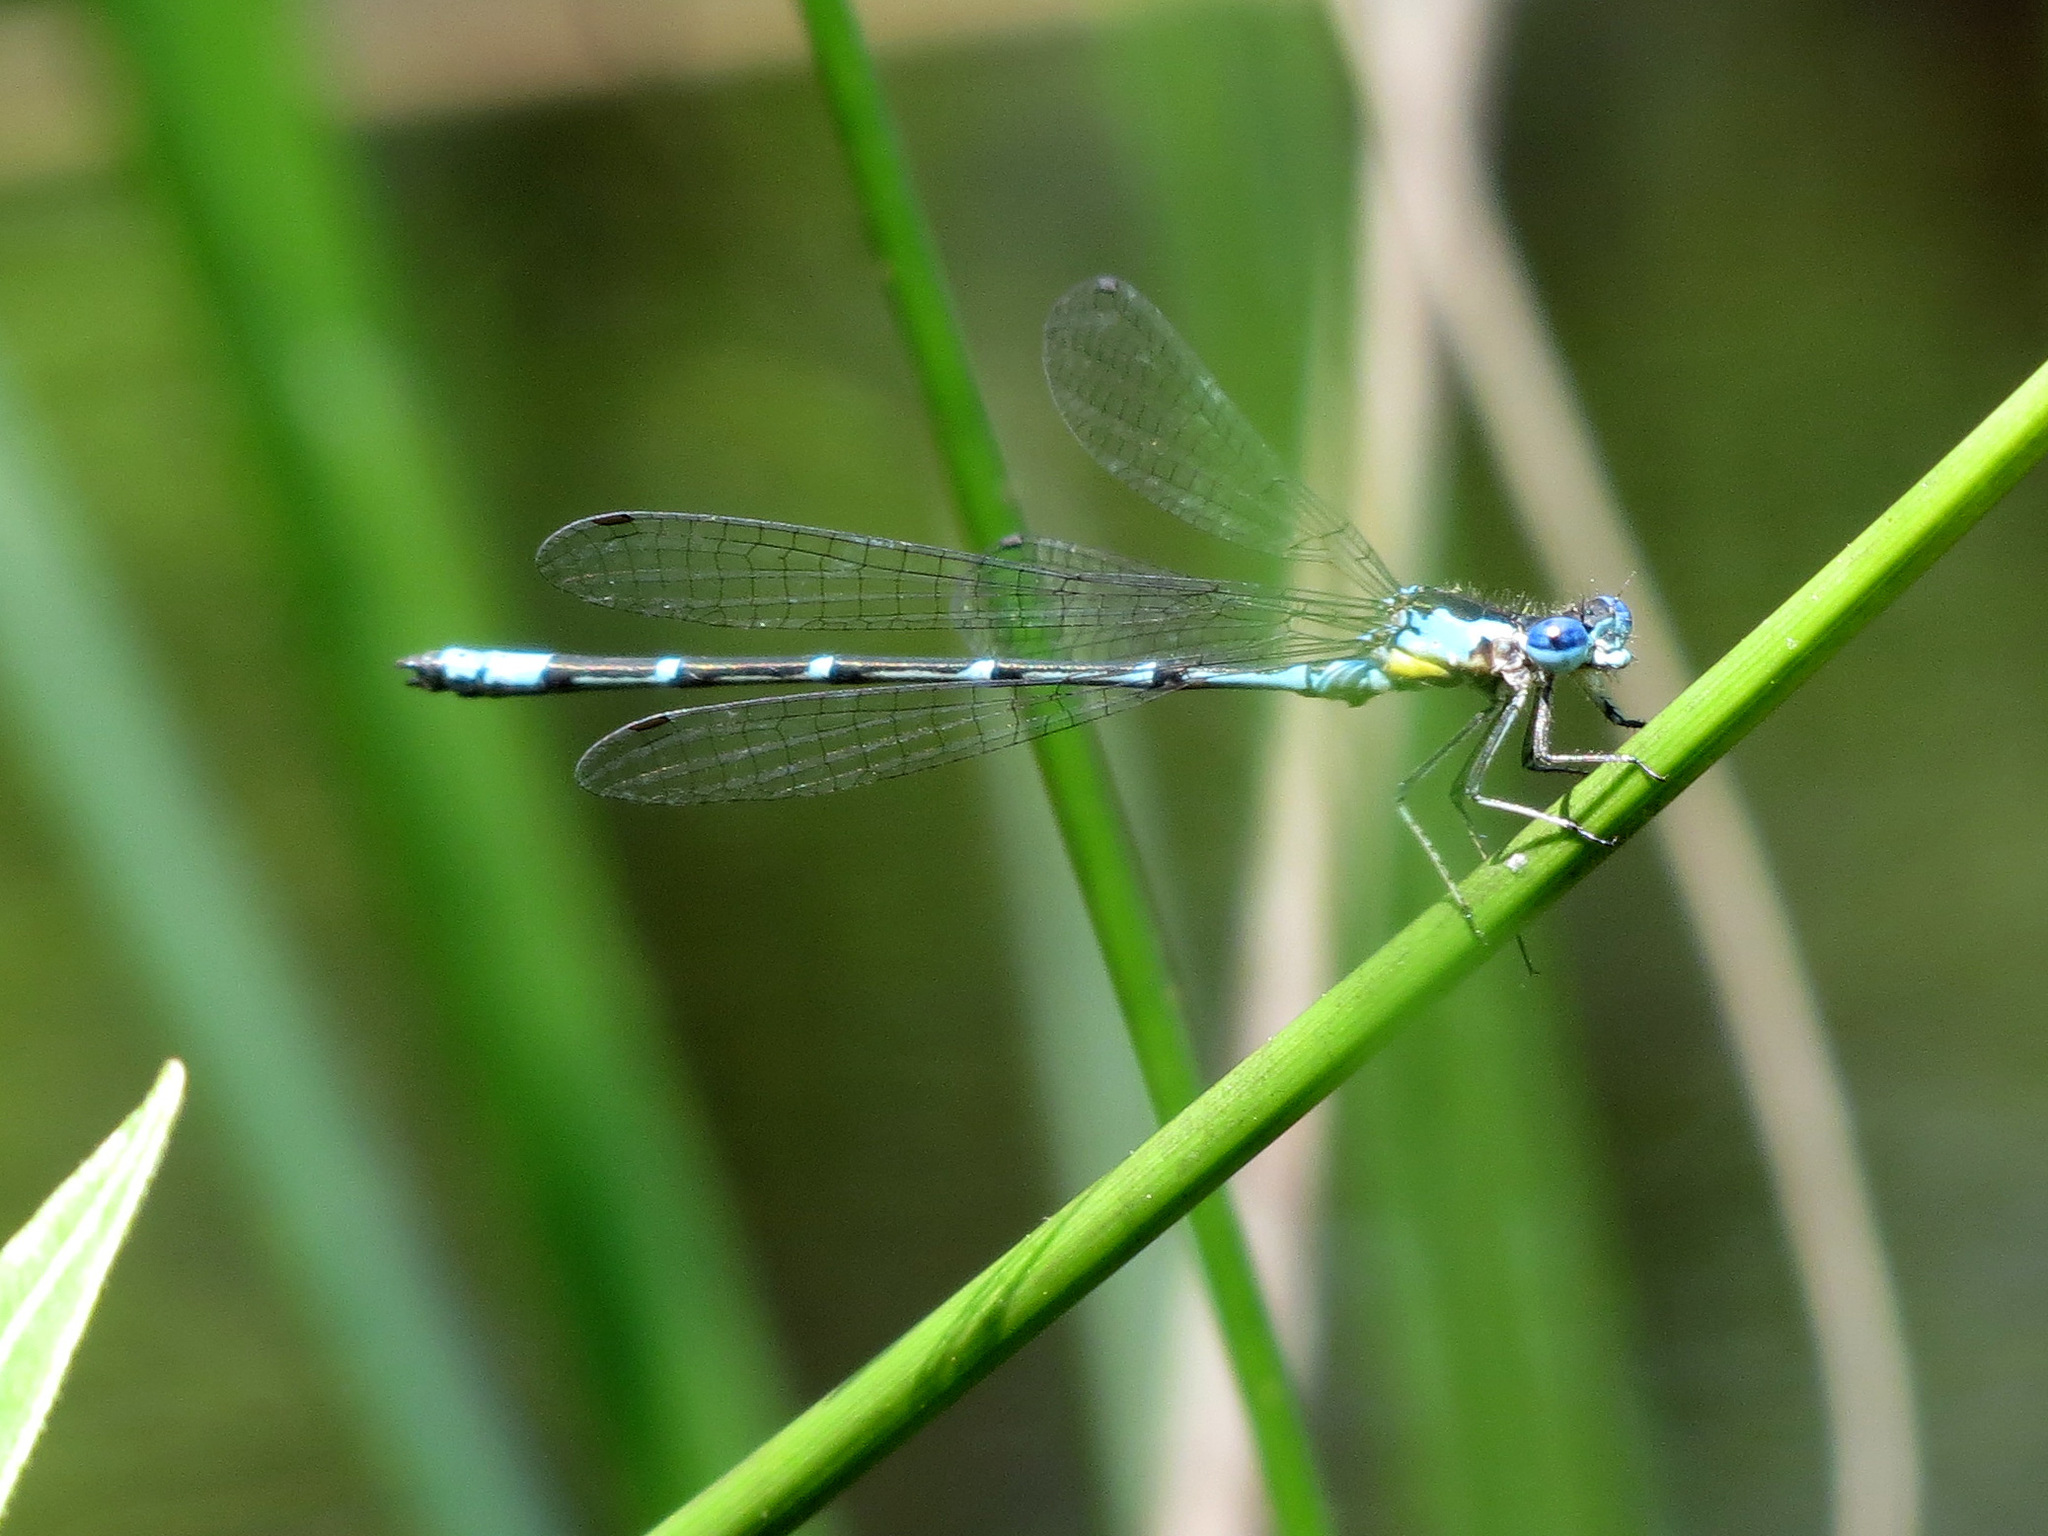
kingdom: Animalia
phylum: Arthropoda
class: Insecta
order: Odonata
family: Coenagrionidae
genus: Chromagrion
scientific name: Chromagrion conditum
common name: Aurora damsel
